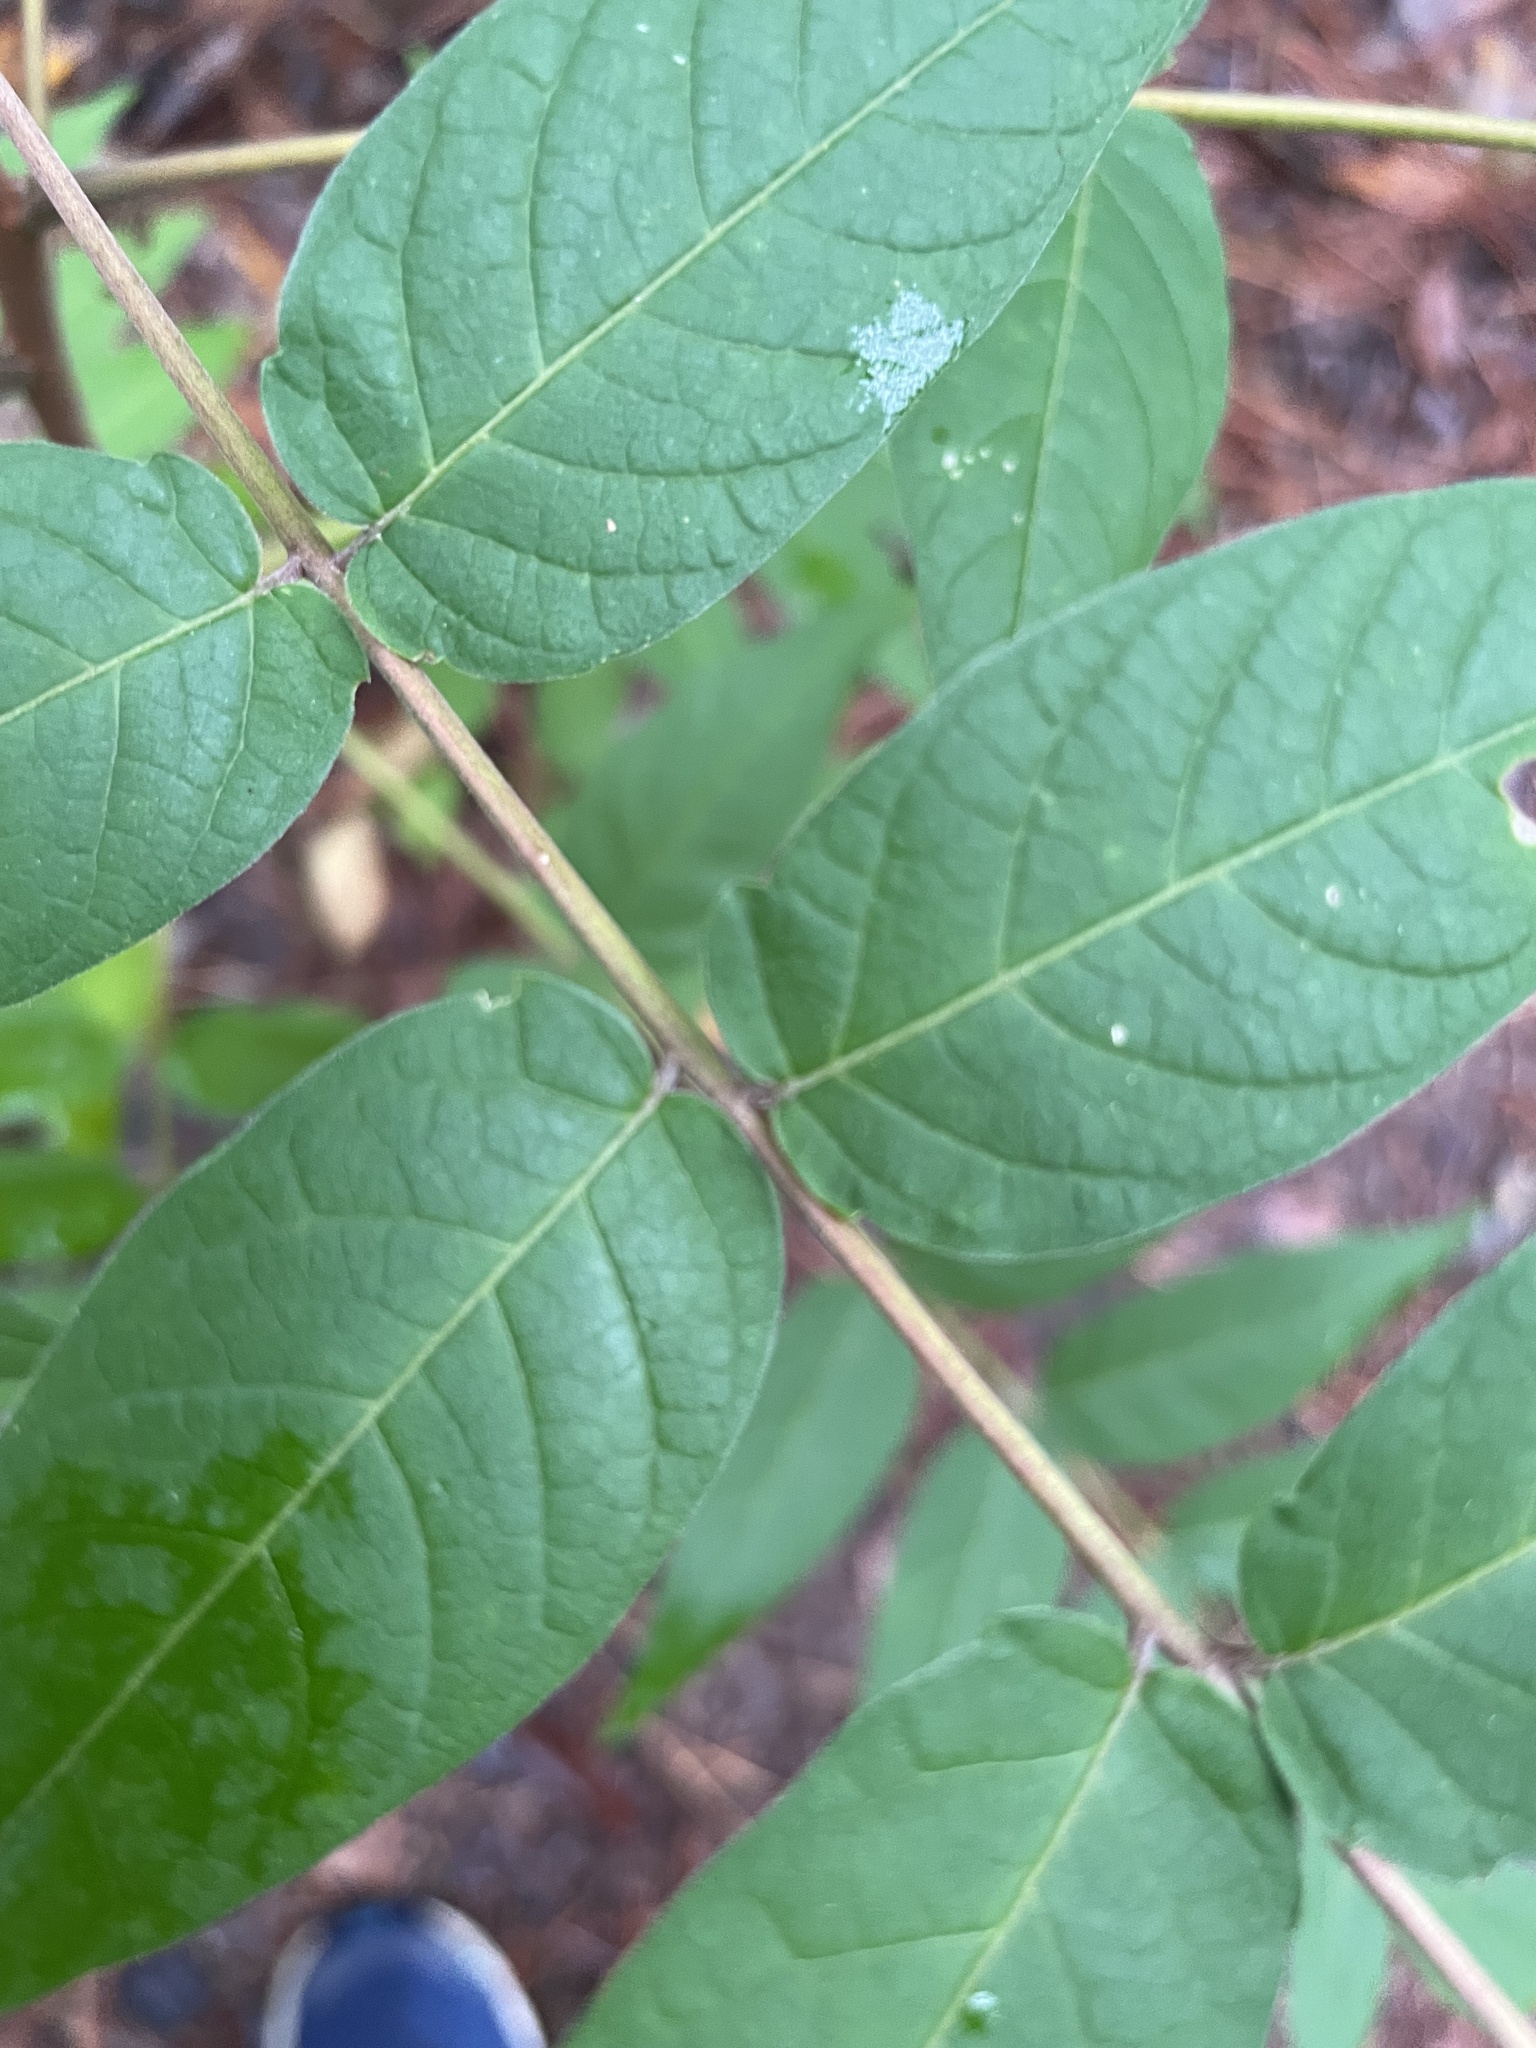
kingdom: Plantae
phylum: Tracheophyta
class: Magnoliopsida
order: Sapindales
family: Simaroubaceae
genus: Ailanthus
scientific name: Ailanthus altissima
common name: Tree-of-heaven
